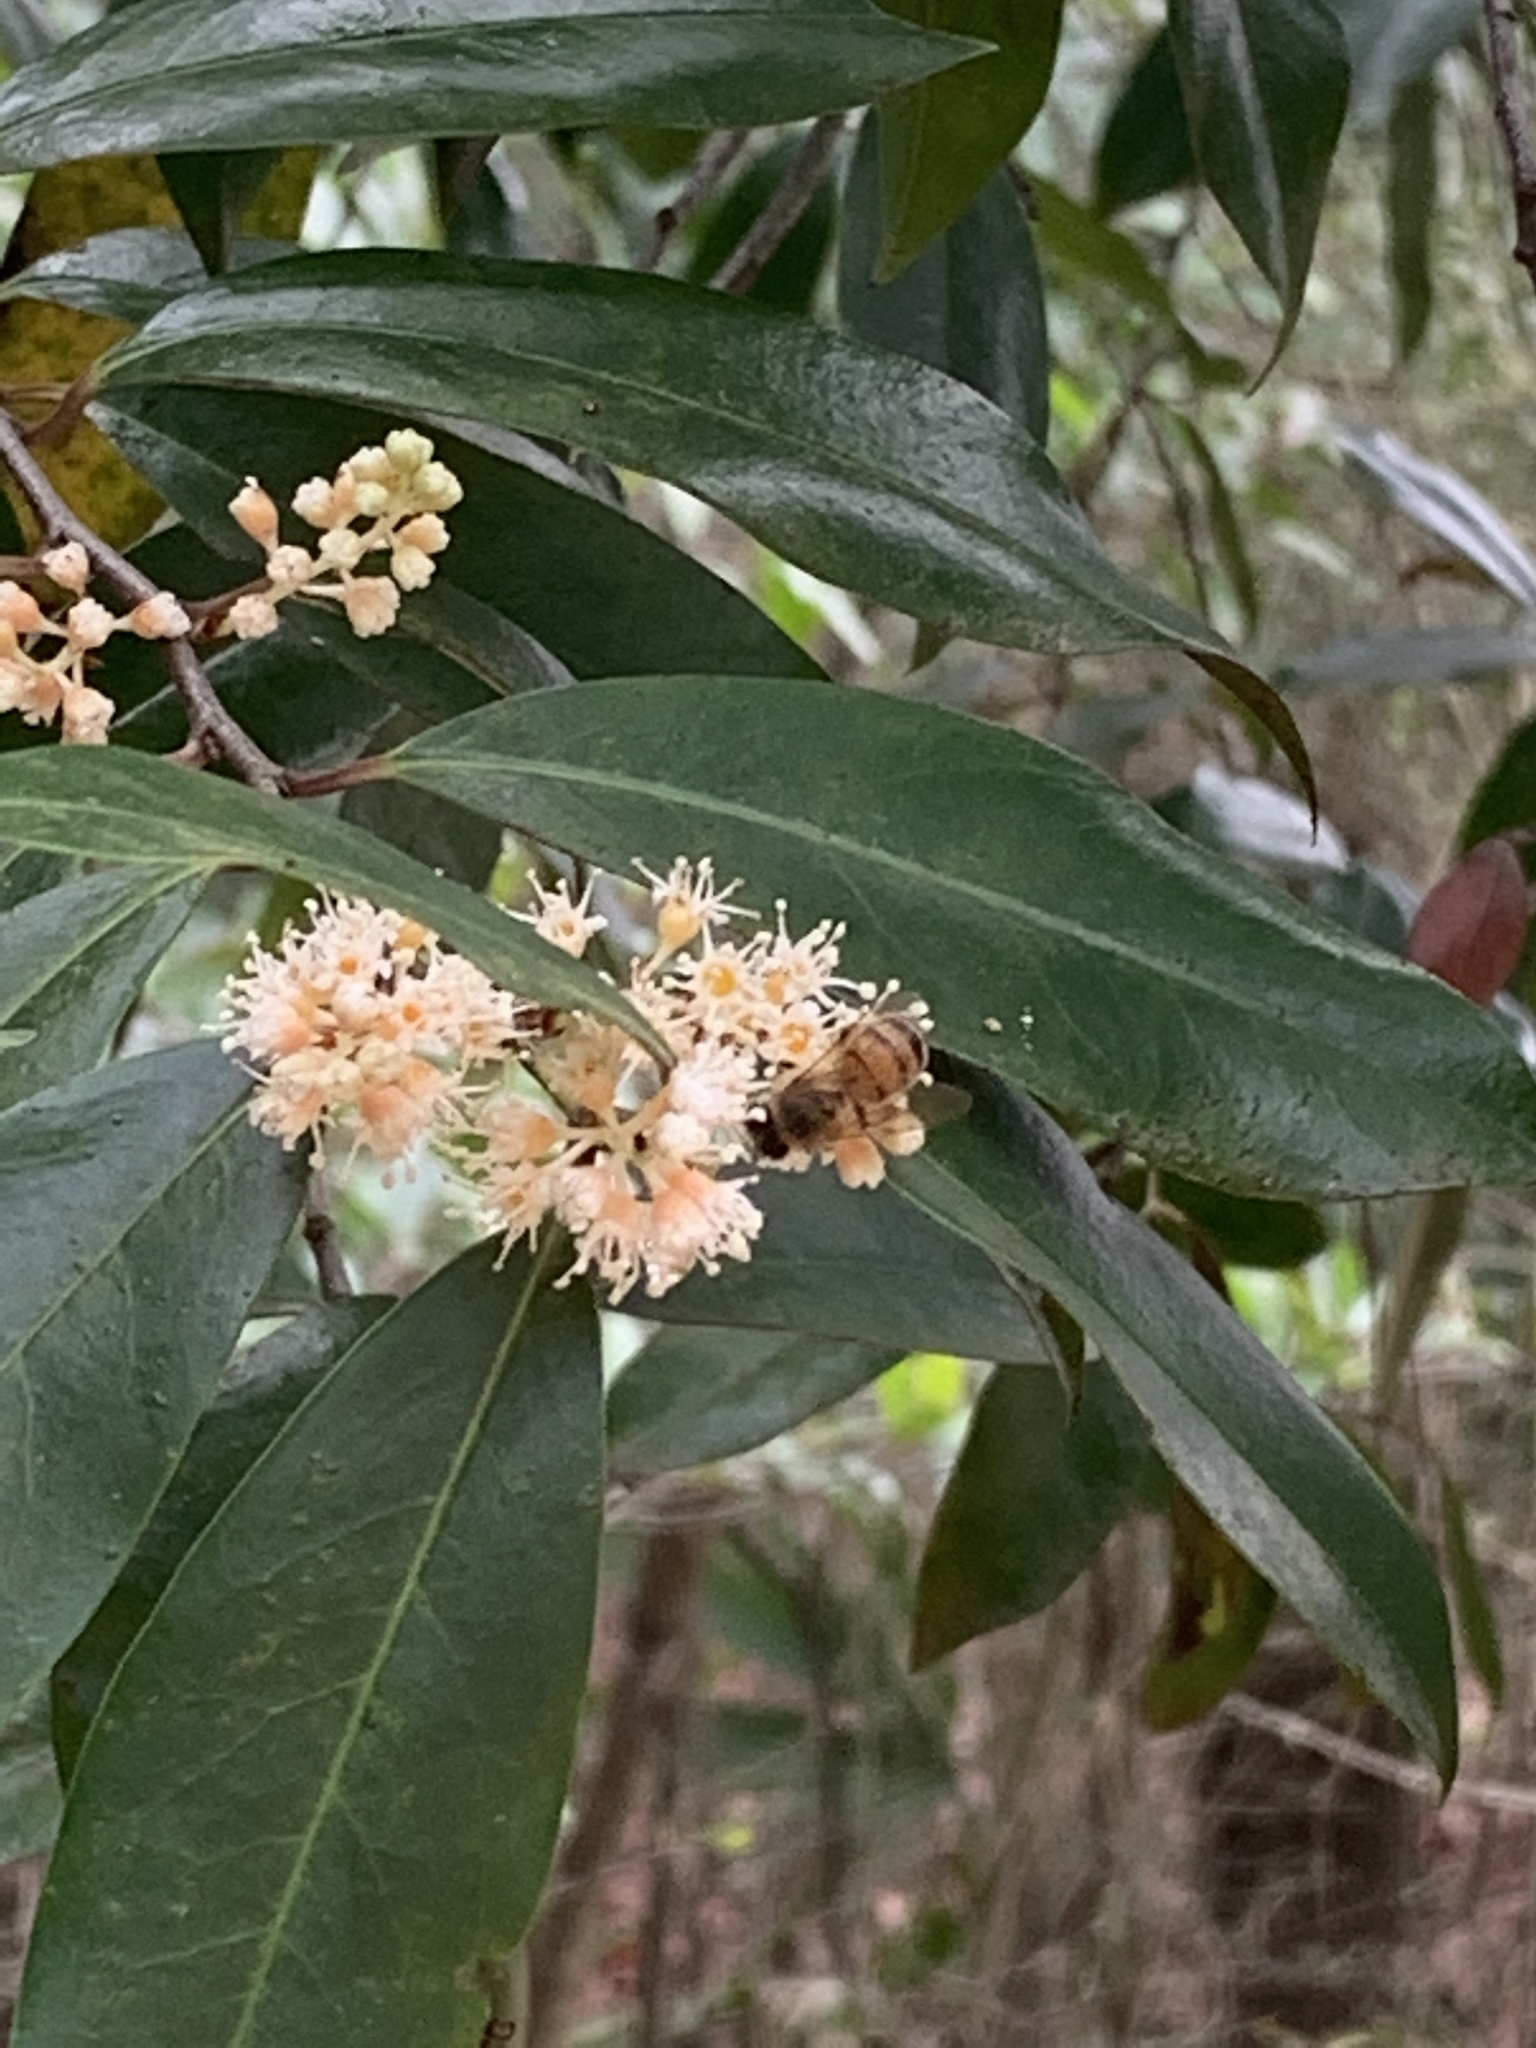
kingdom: Plantae
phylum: Tracheophyta
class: Magnoliopsida
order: Rosales
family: Rosaceae
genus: Prunus
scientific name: Prunus caroliniana
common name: Carolina laurel cherry
